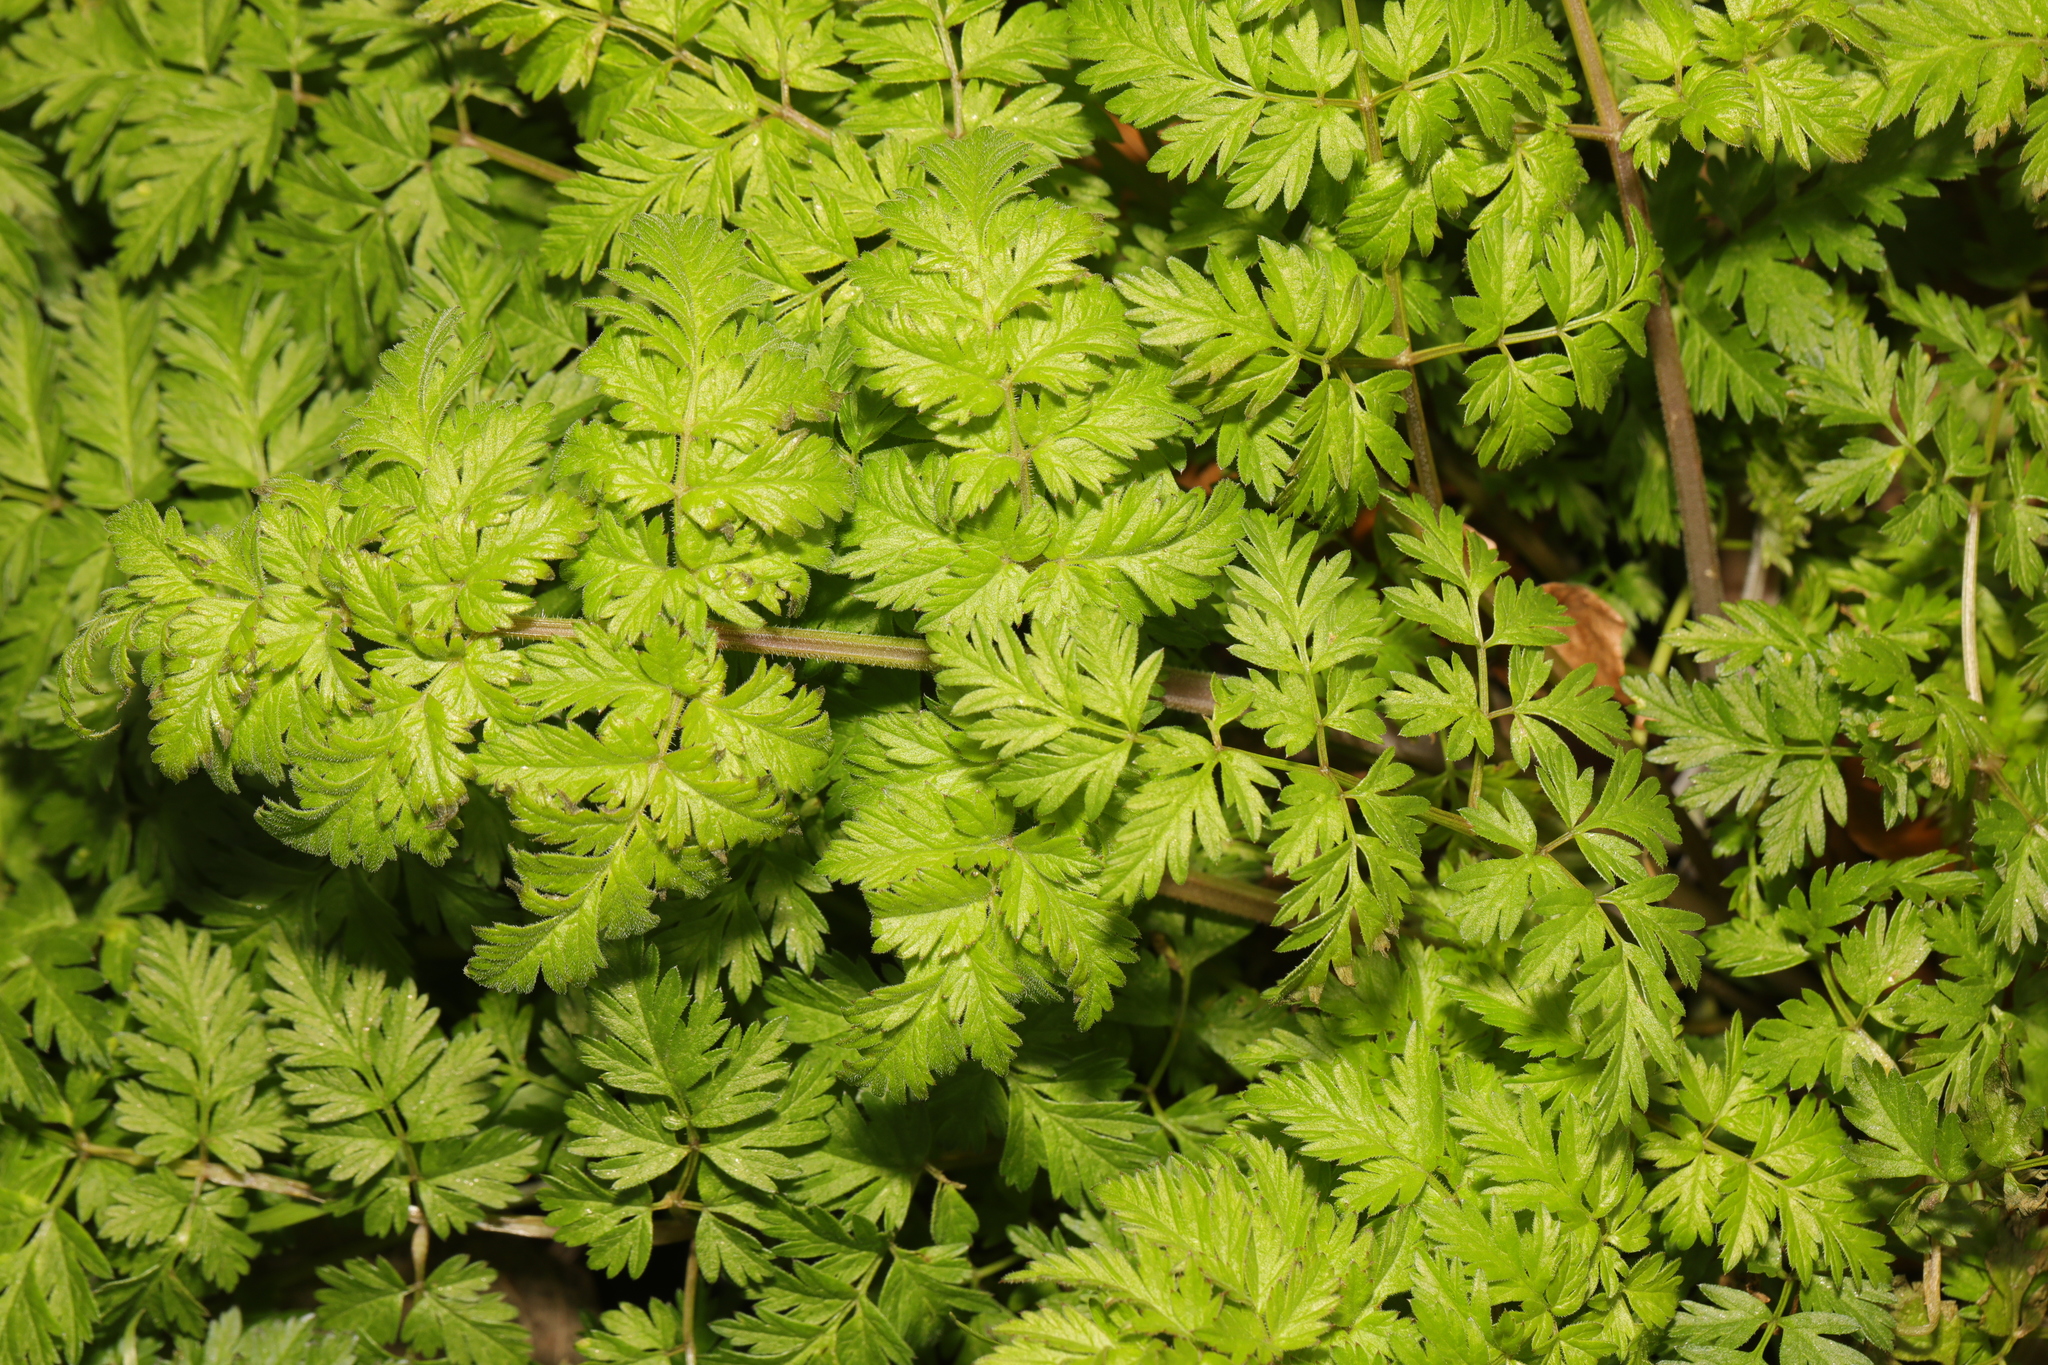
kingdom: Plantae
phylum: Tracheophyta
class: Magnoliopsida
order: Apiales
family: Apiaceae
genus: Anthriscus
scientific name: Anthriscus sylvestris
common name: Cow parsley
